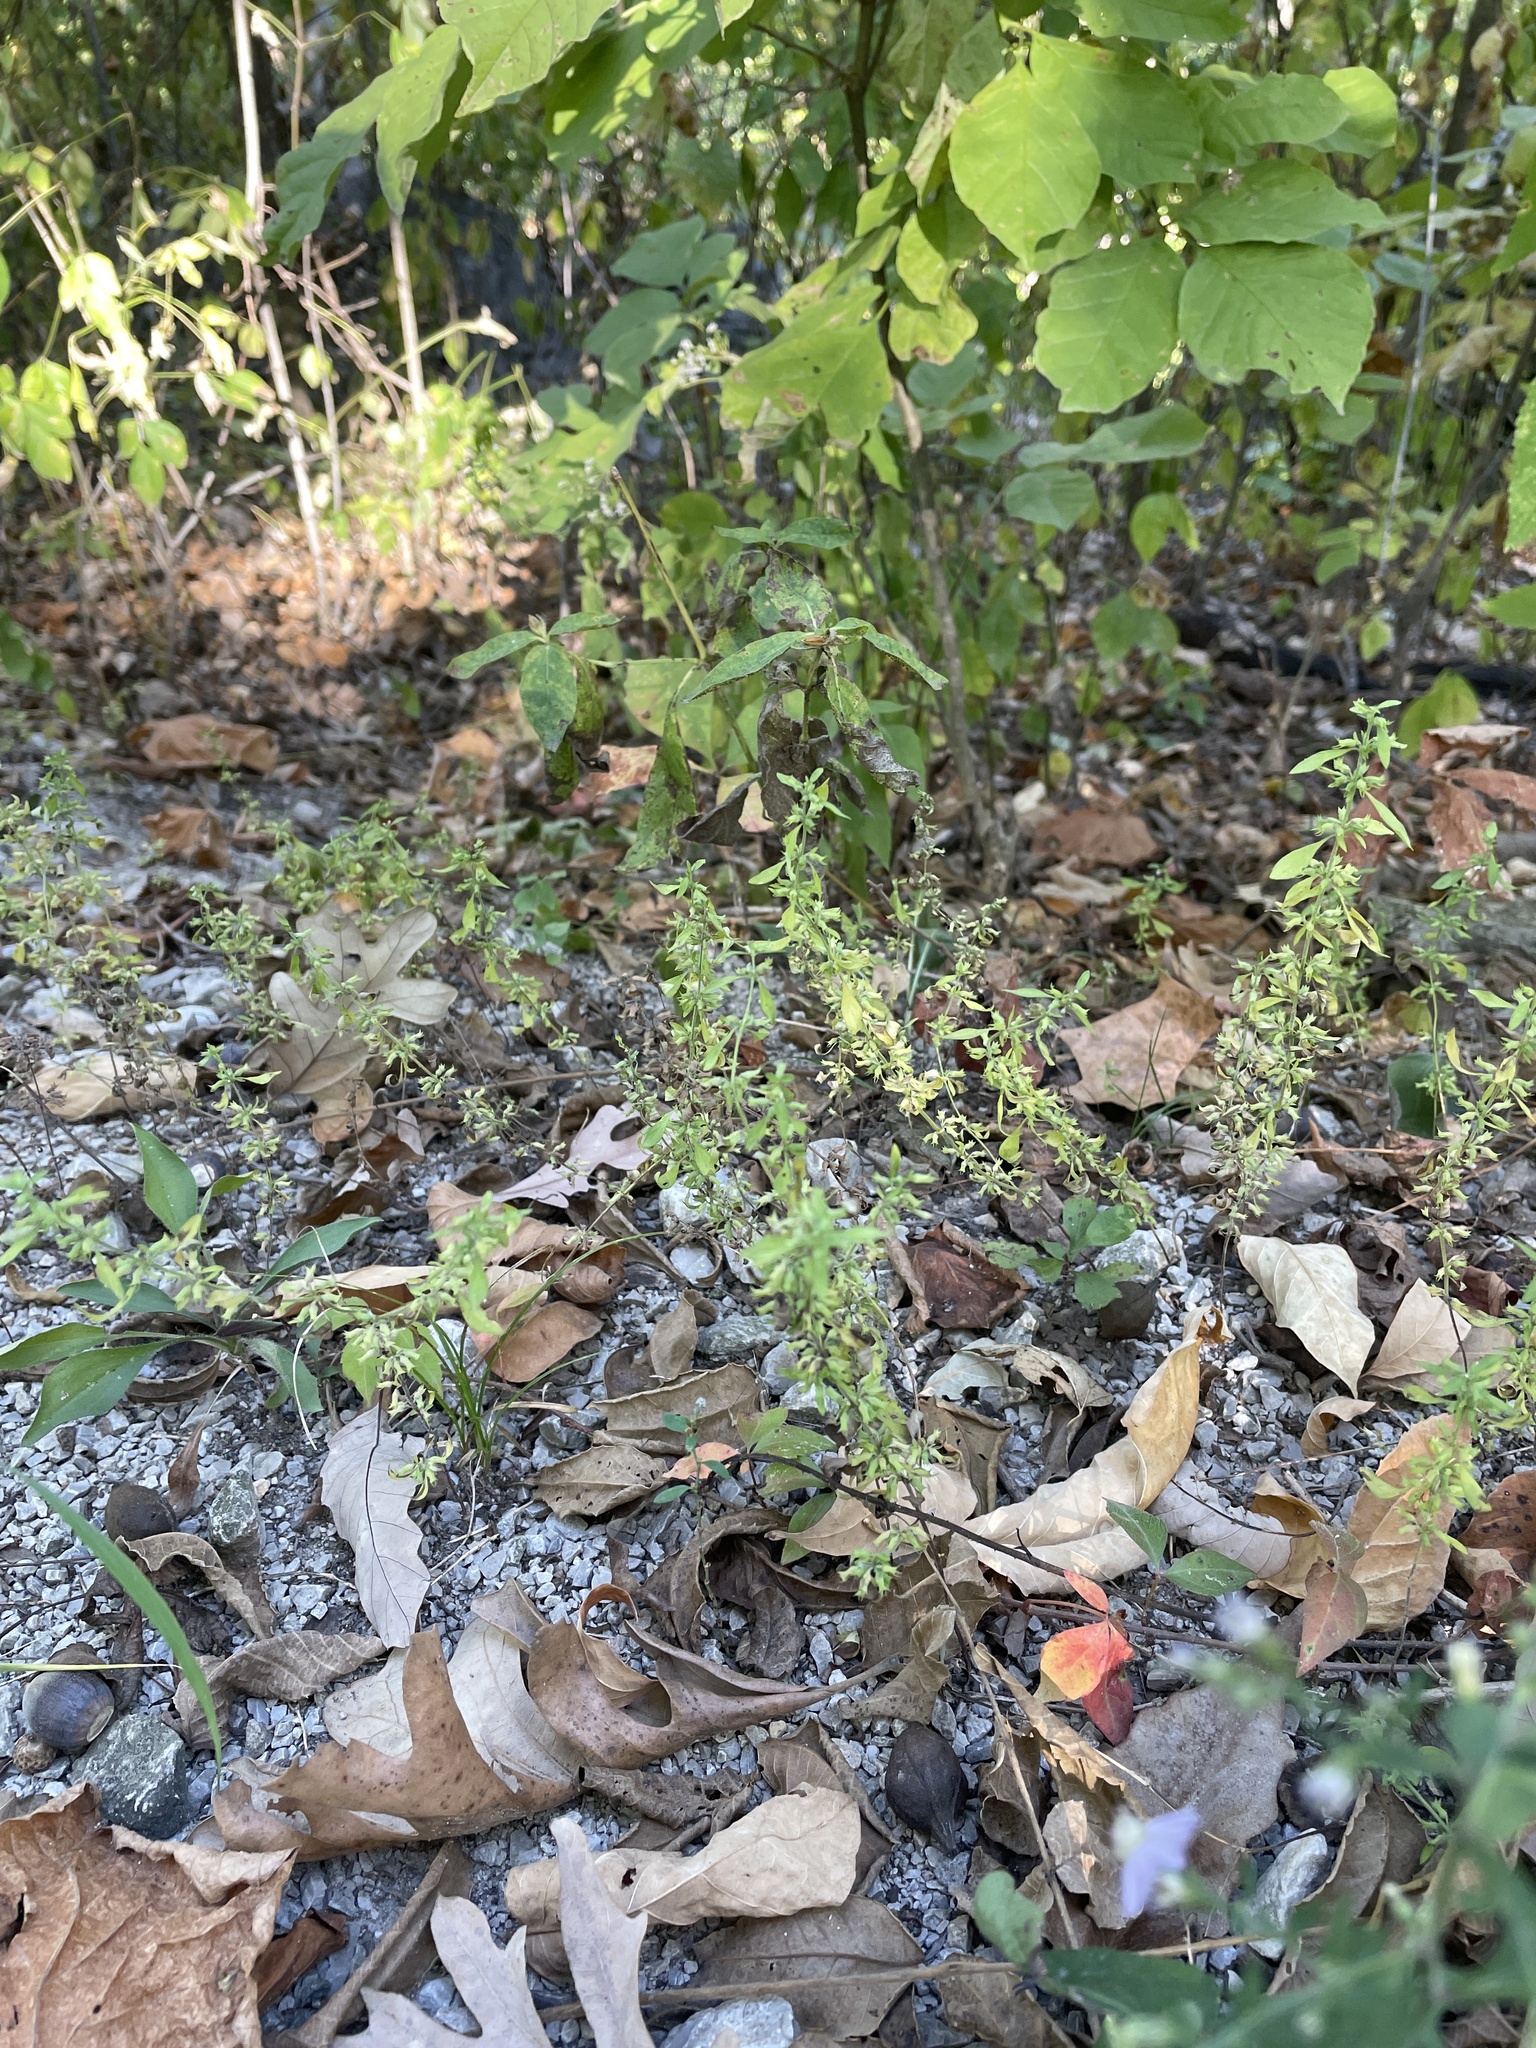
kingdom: Plantae
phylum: Tracheophyta
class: Magnoliopsida
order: Lamiales
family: Lamiaceae
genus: Hedeoma
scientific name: Hedeoma pulegioides
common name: American false pennyroyal
